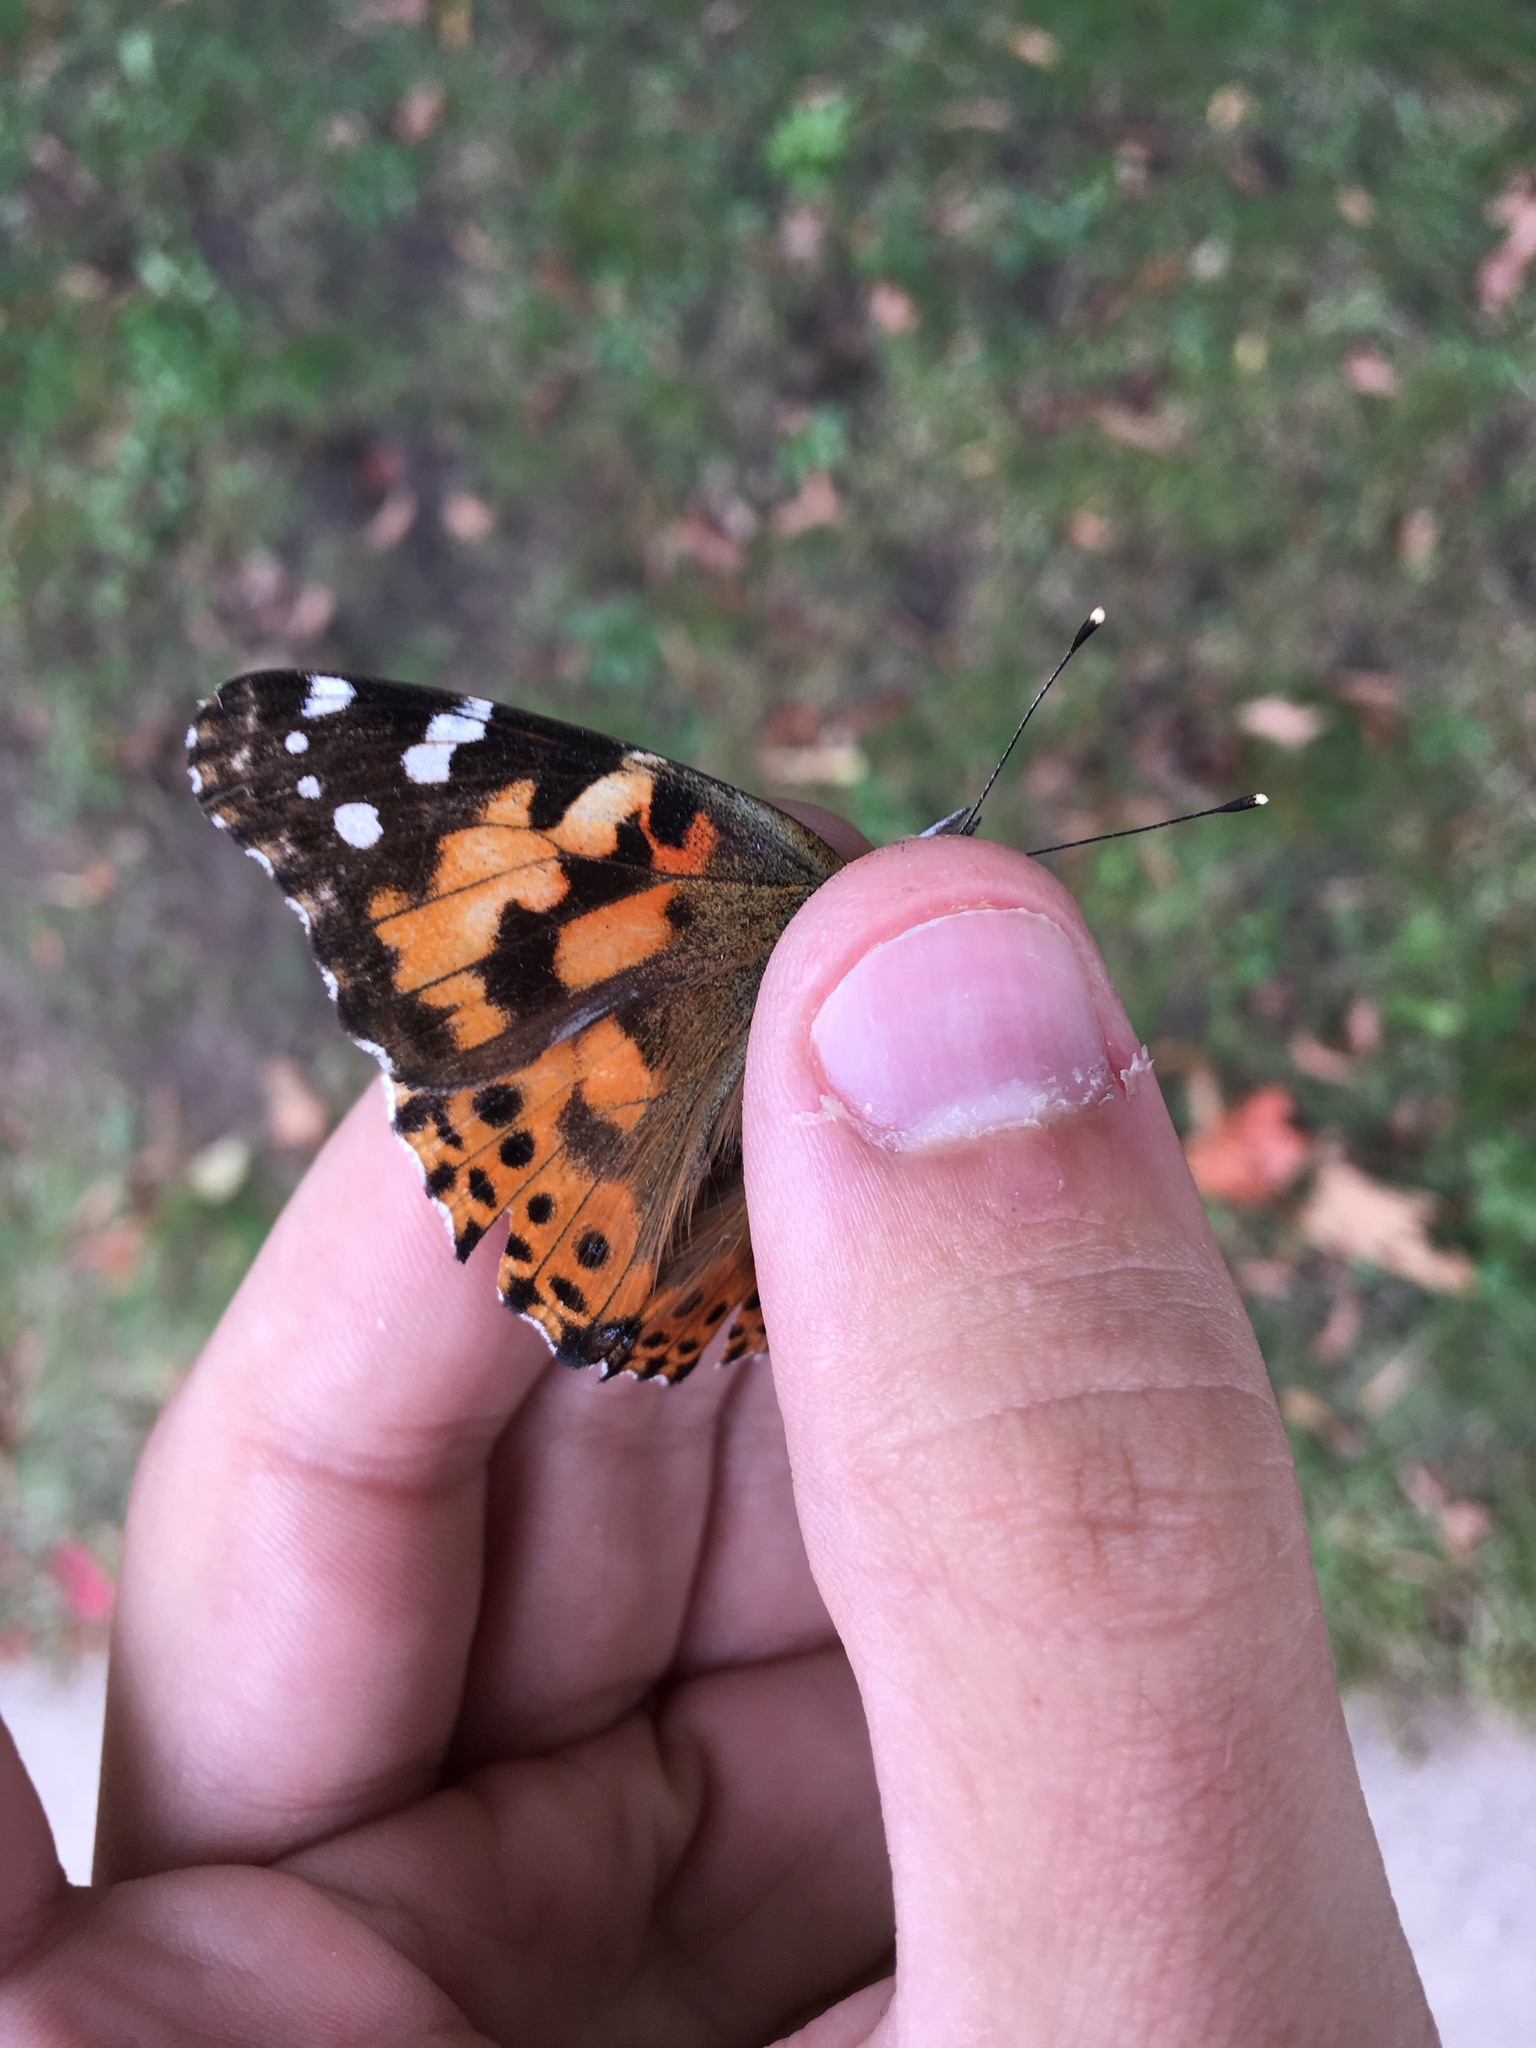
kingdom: Animalia
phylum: Arthropoda
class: Insecta
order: Lepidoptera
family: Nymphalidae
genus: Vanessa
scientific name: Vanessa cardui
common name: Painted lady
